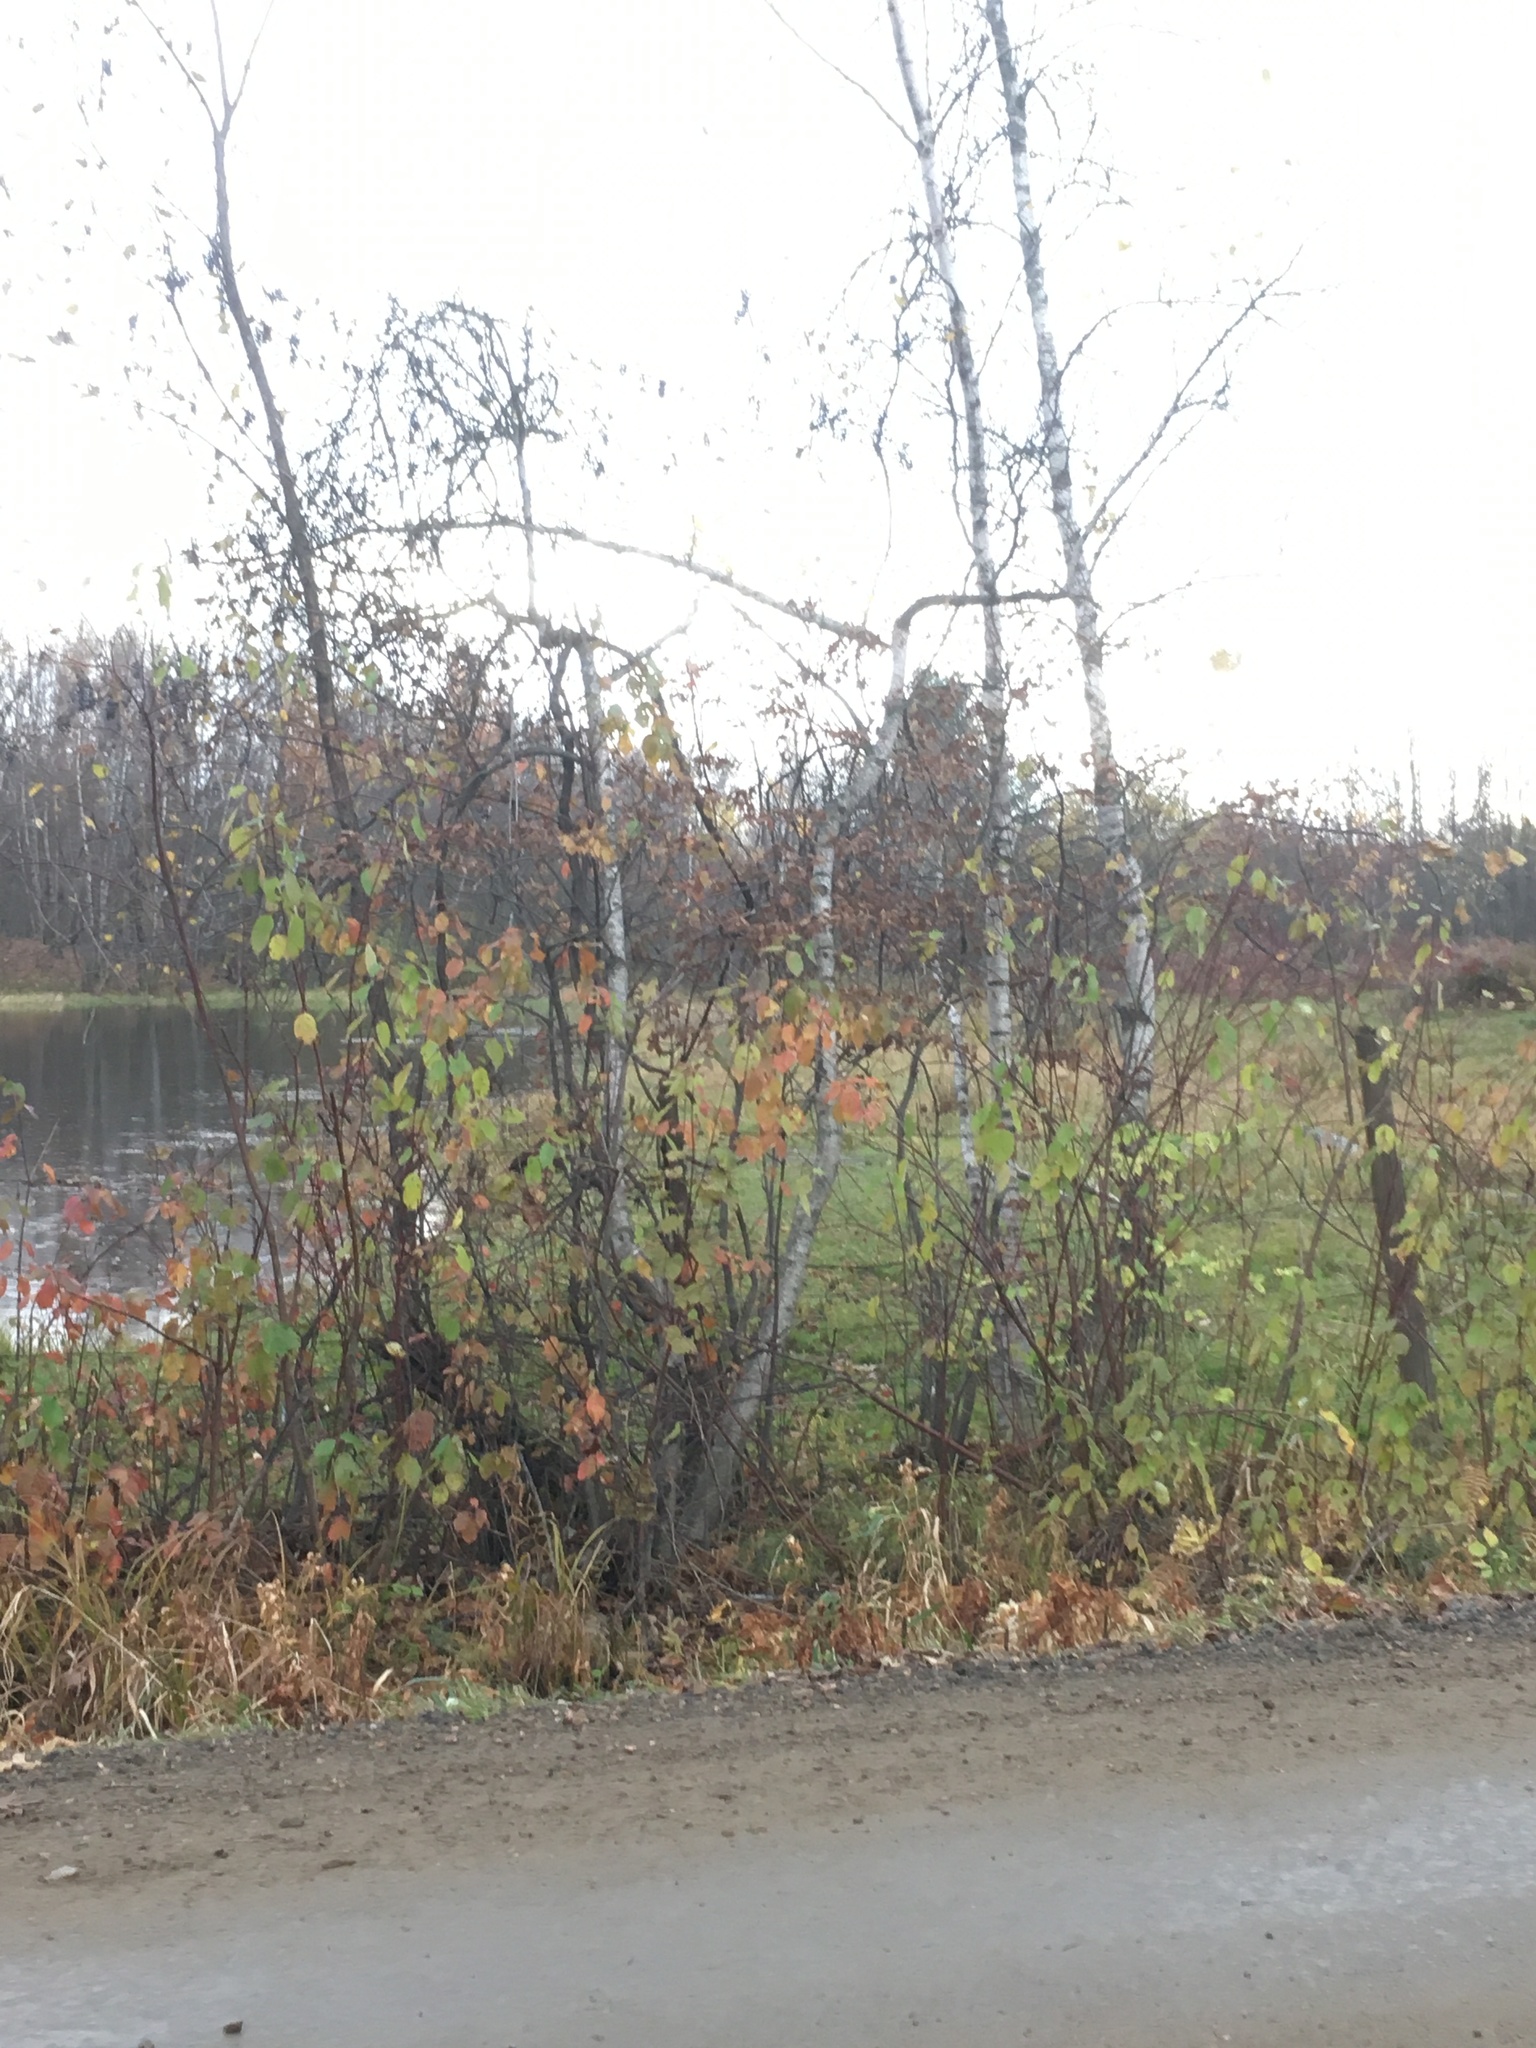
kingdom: Plantae
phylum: Tracheophyta
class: Magnoliopsida
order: Fagales
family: Betulaceae
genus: Betula
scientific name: Betula populifolia
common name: Fire birch
